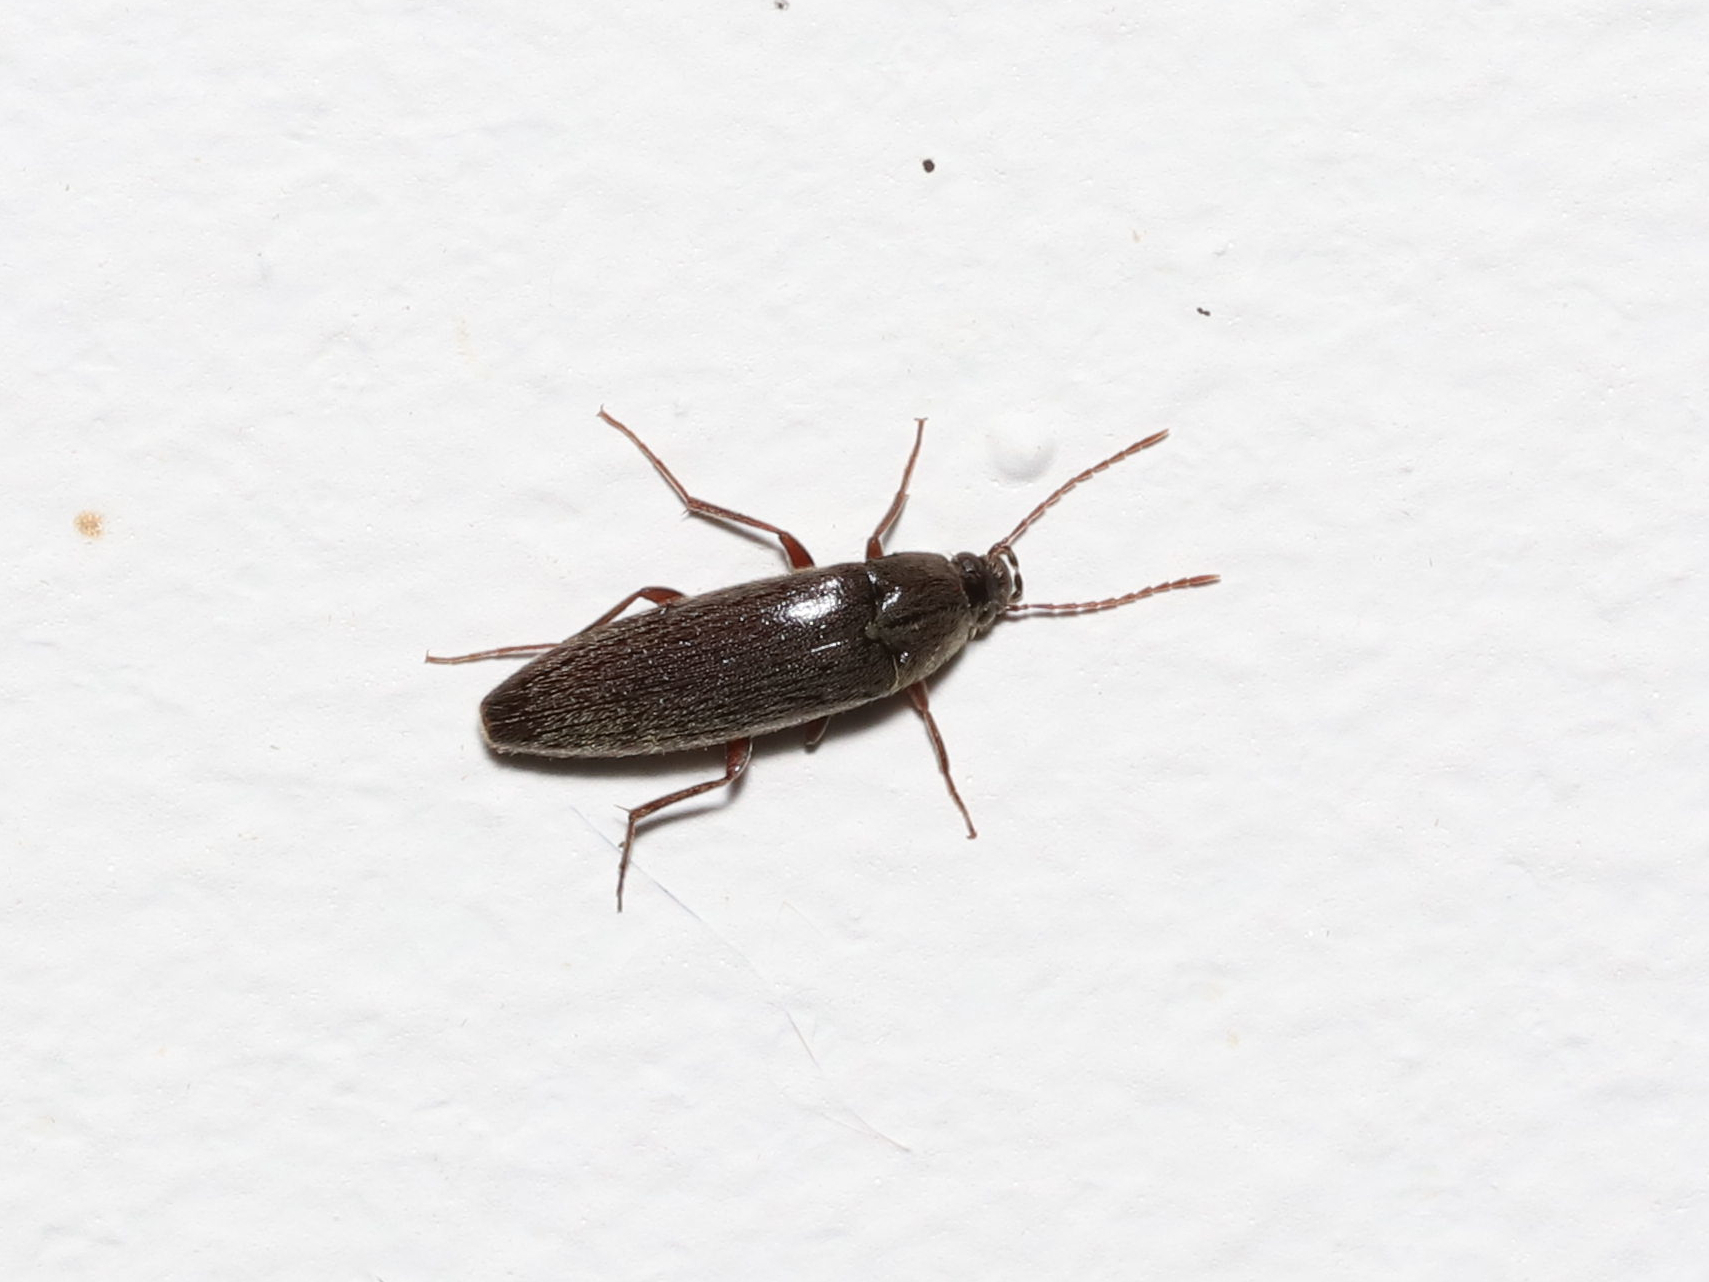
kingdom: Animalia
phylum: Arthropoda
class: Insecta
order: Coleoptera
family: Synchroidae
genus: Synchroa
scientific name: Synchroa punctata
